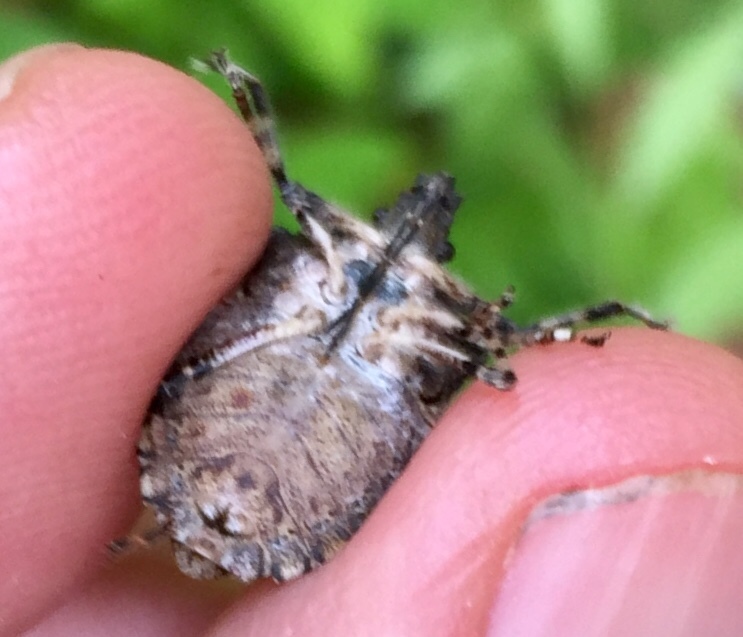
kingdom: Animalia
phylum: Arthropoda
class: Insecta
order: Hemiptera
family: Pentatomidae
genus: Brochymena
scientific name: Brochymena arborea
